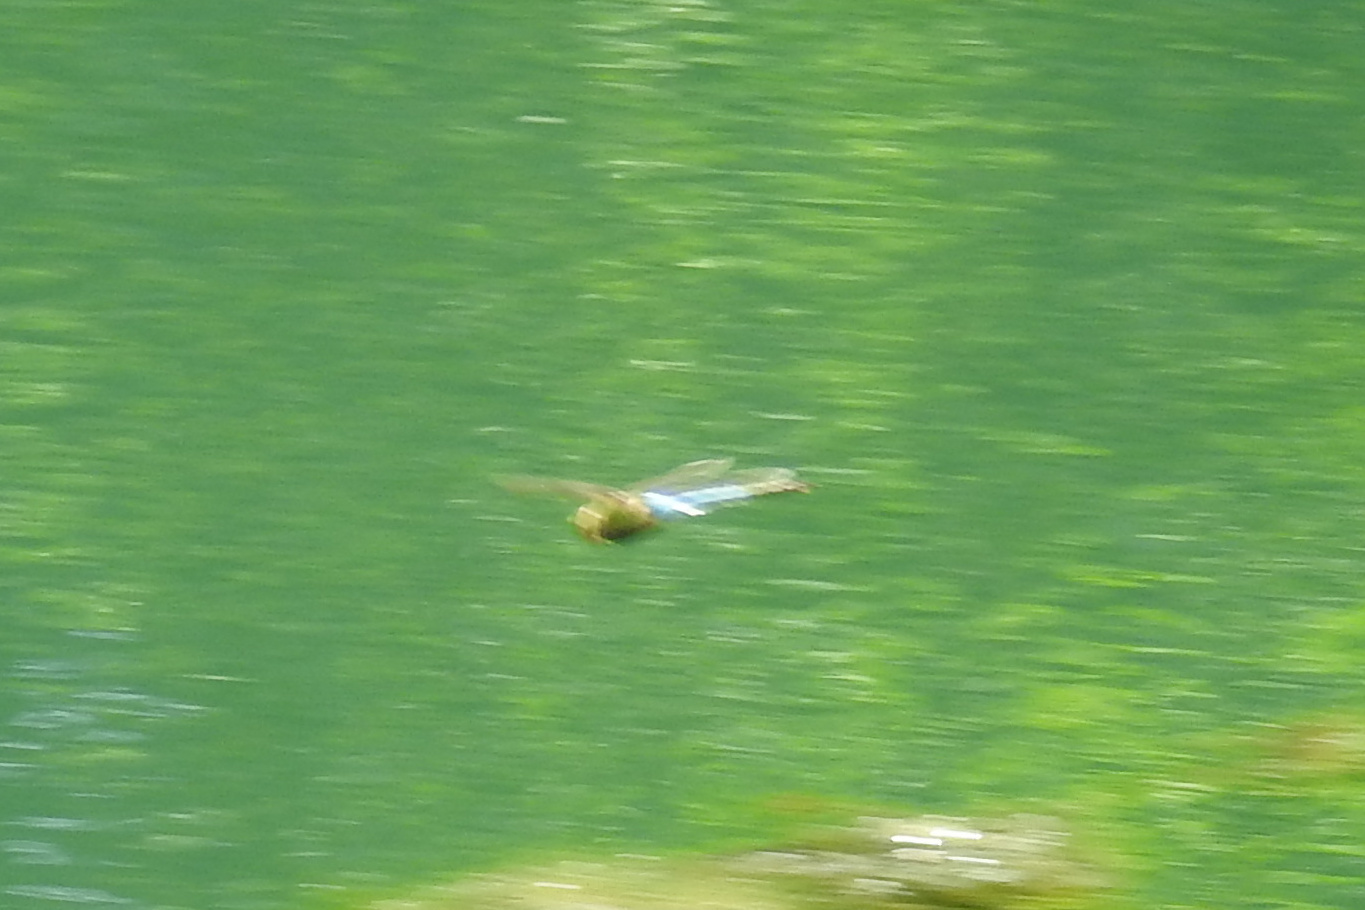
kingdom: Animalia
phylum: Arthropoda
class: Insecta
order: Odonata
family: Aeshnidae
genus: Anax
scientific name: Anax junius
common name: Common green darner
